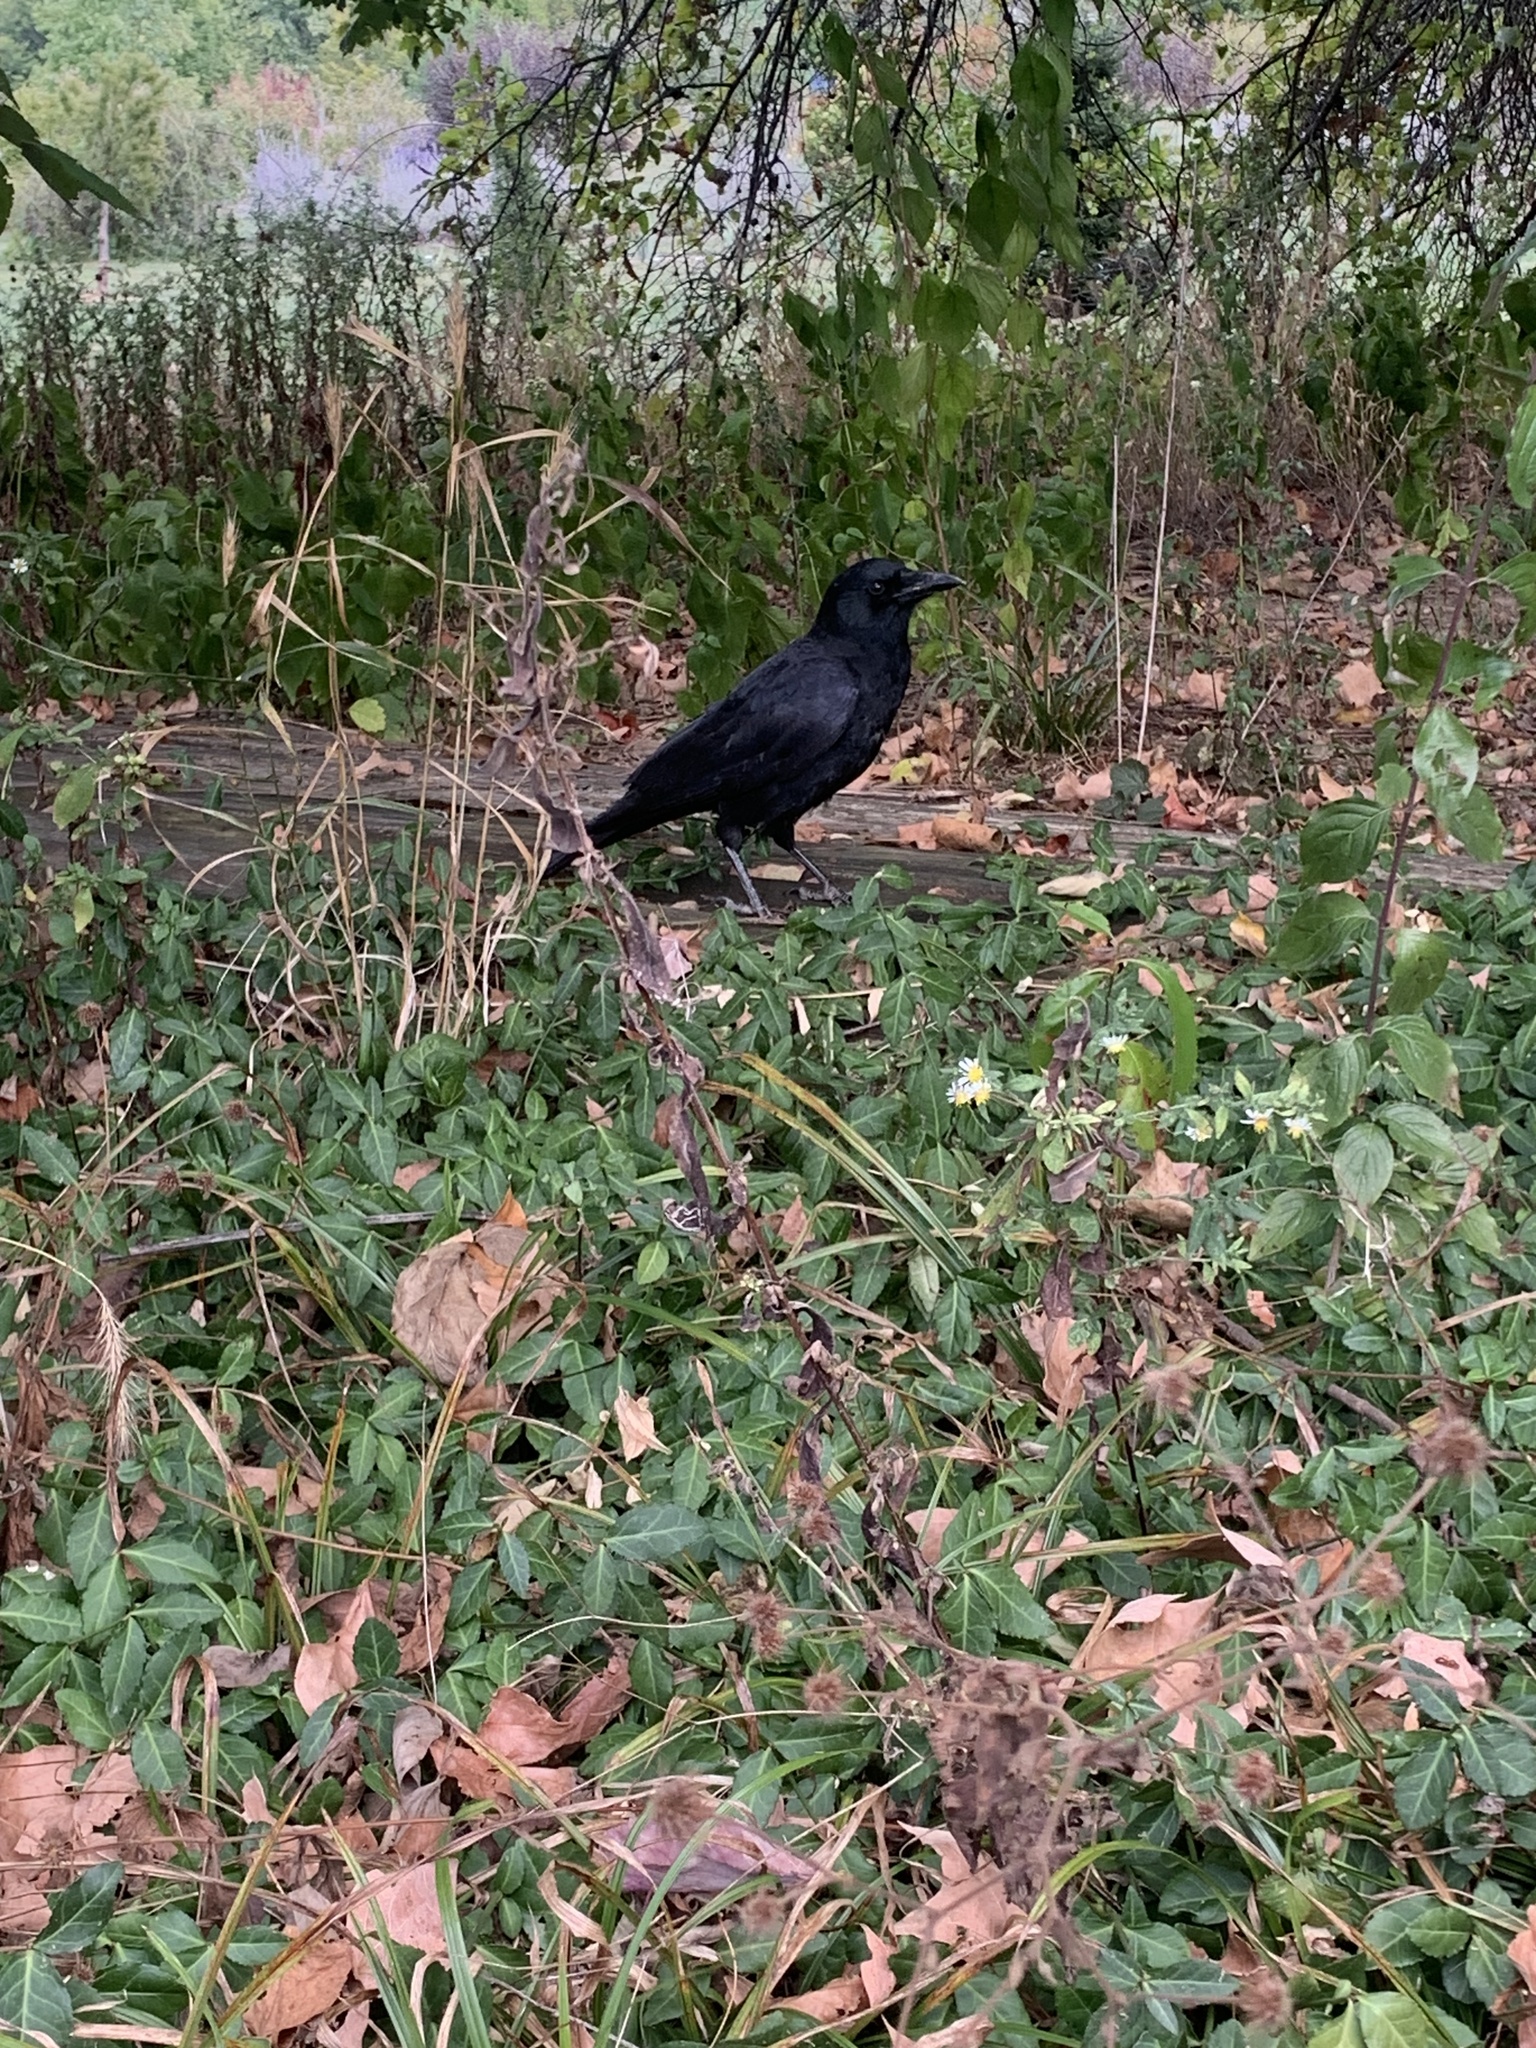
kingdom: Animalia
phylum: Chordata
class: Aves
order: Passeriformes
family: Corvidae
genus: Corvus
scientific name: Corvus brachyrhynchos
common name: American crow
